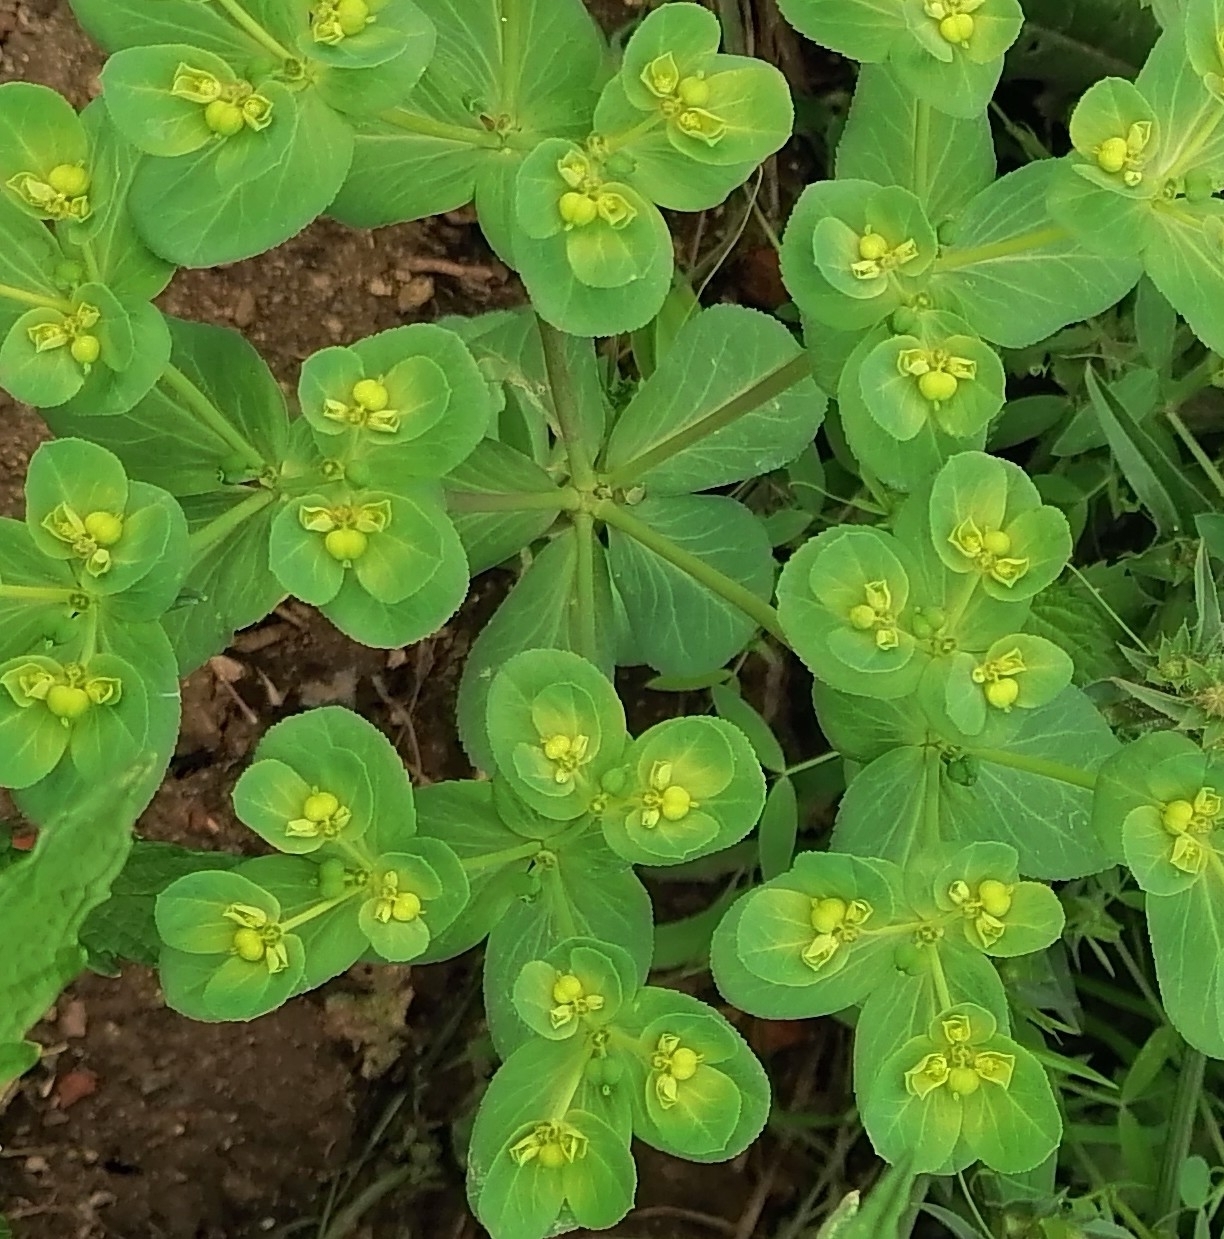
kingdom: Plantae
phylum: Tracheophyta
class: Magnoliopsida
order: Malpighiales
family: Euphorbiaceae
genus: Euphorbia
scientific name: Euphorbia helioscopia
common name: Sun spurge
